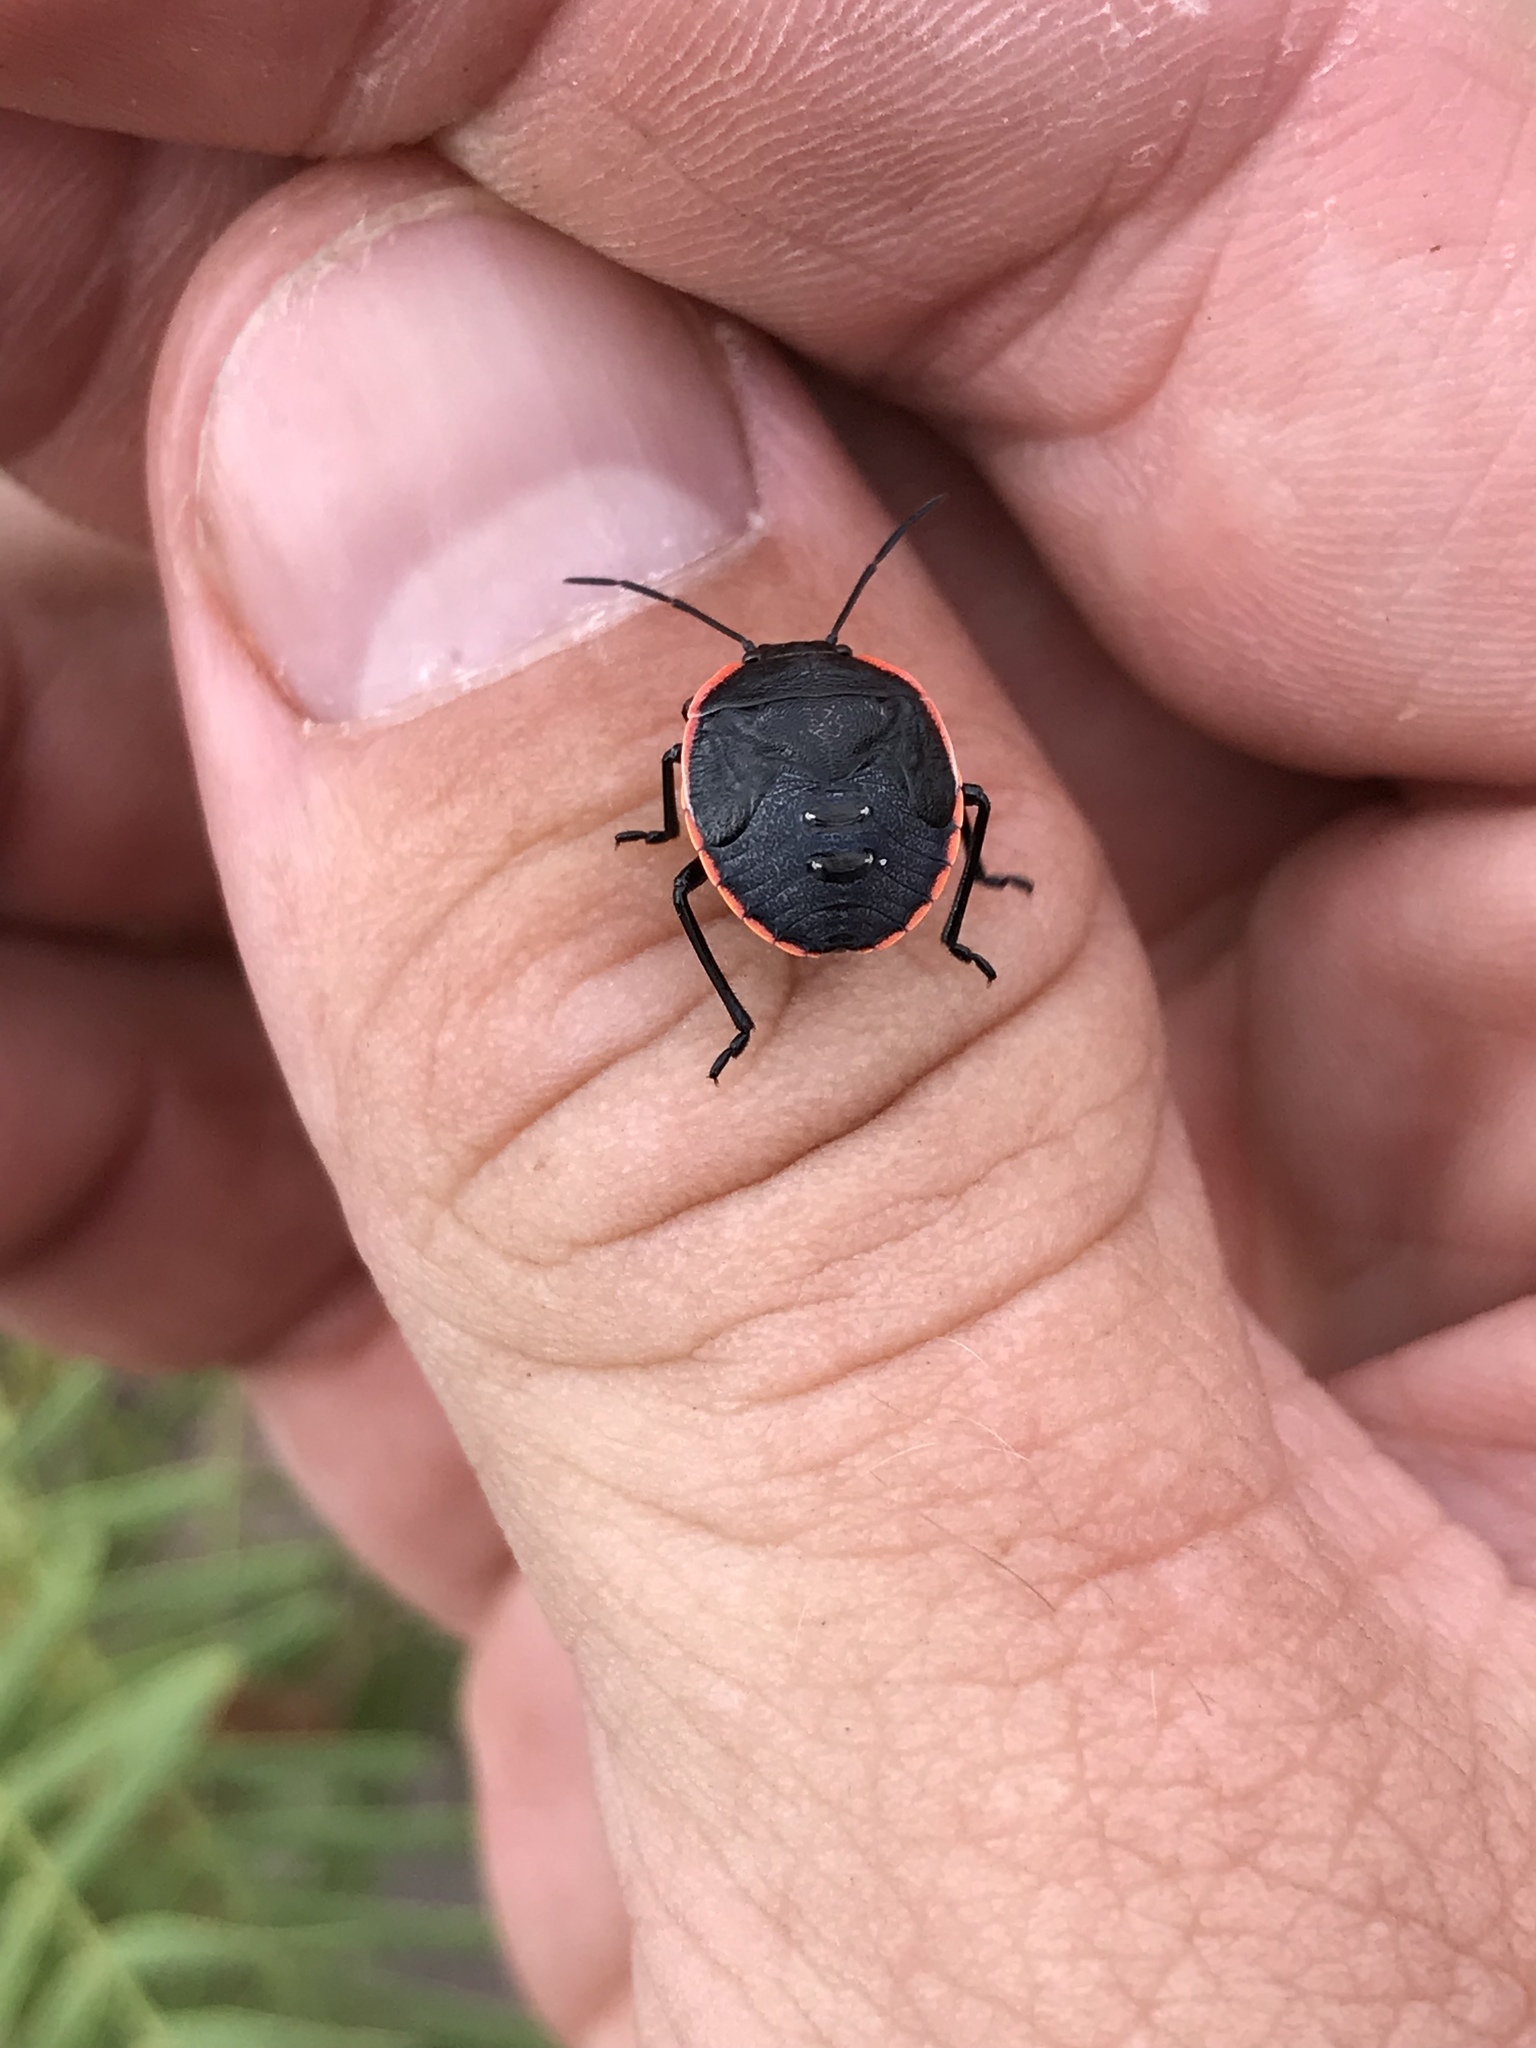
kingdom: Animalia
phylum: Arthropoda
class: Insecta
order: Hemiptera
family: Pentatomidae
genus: Chlorochroa
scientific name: Chlorochroa ligata
